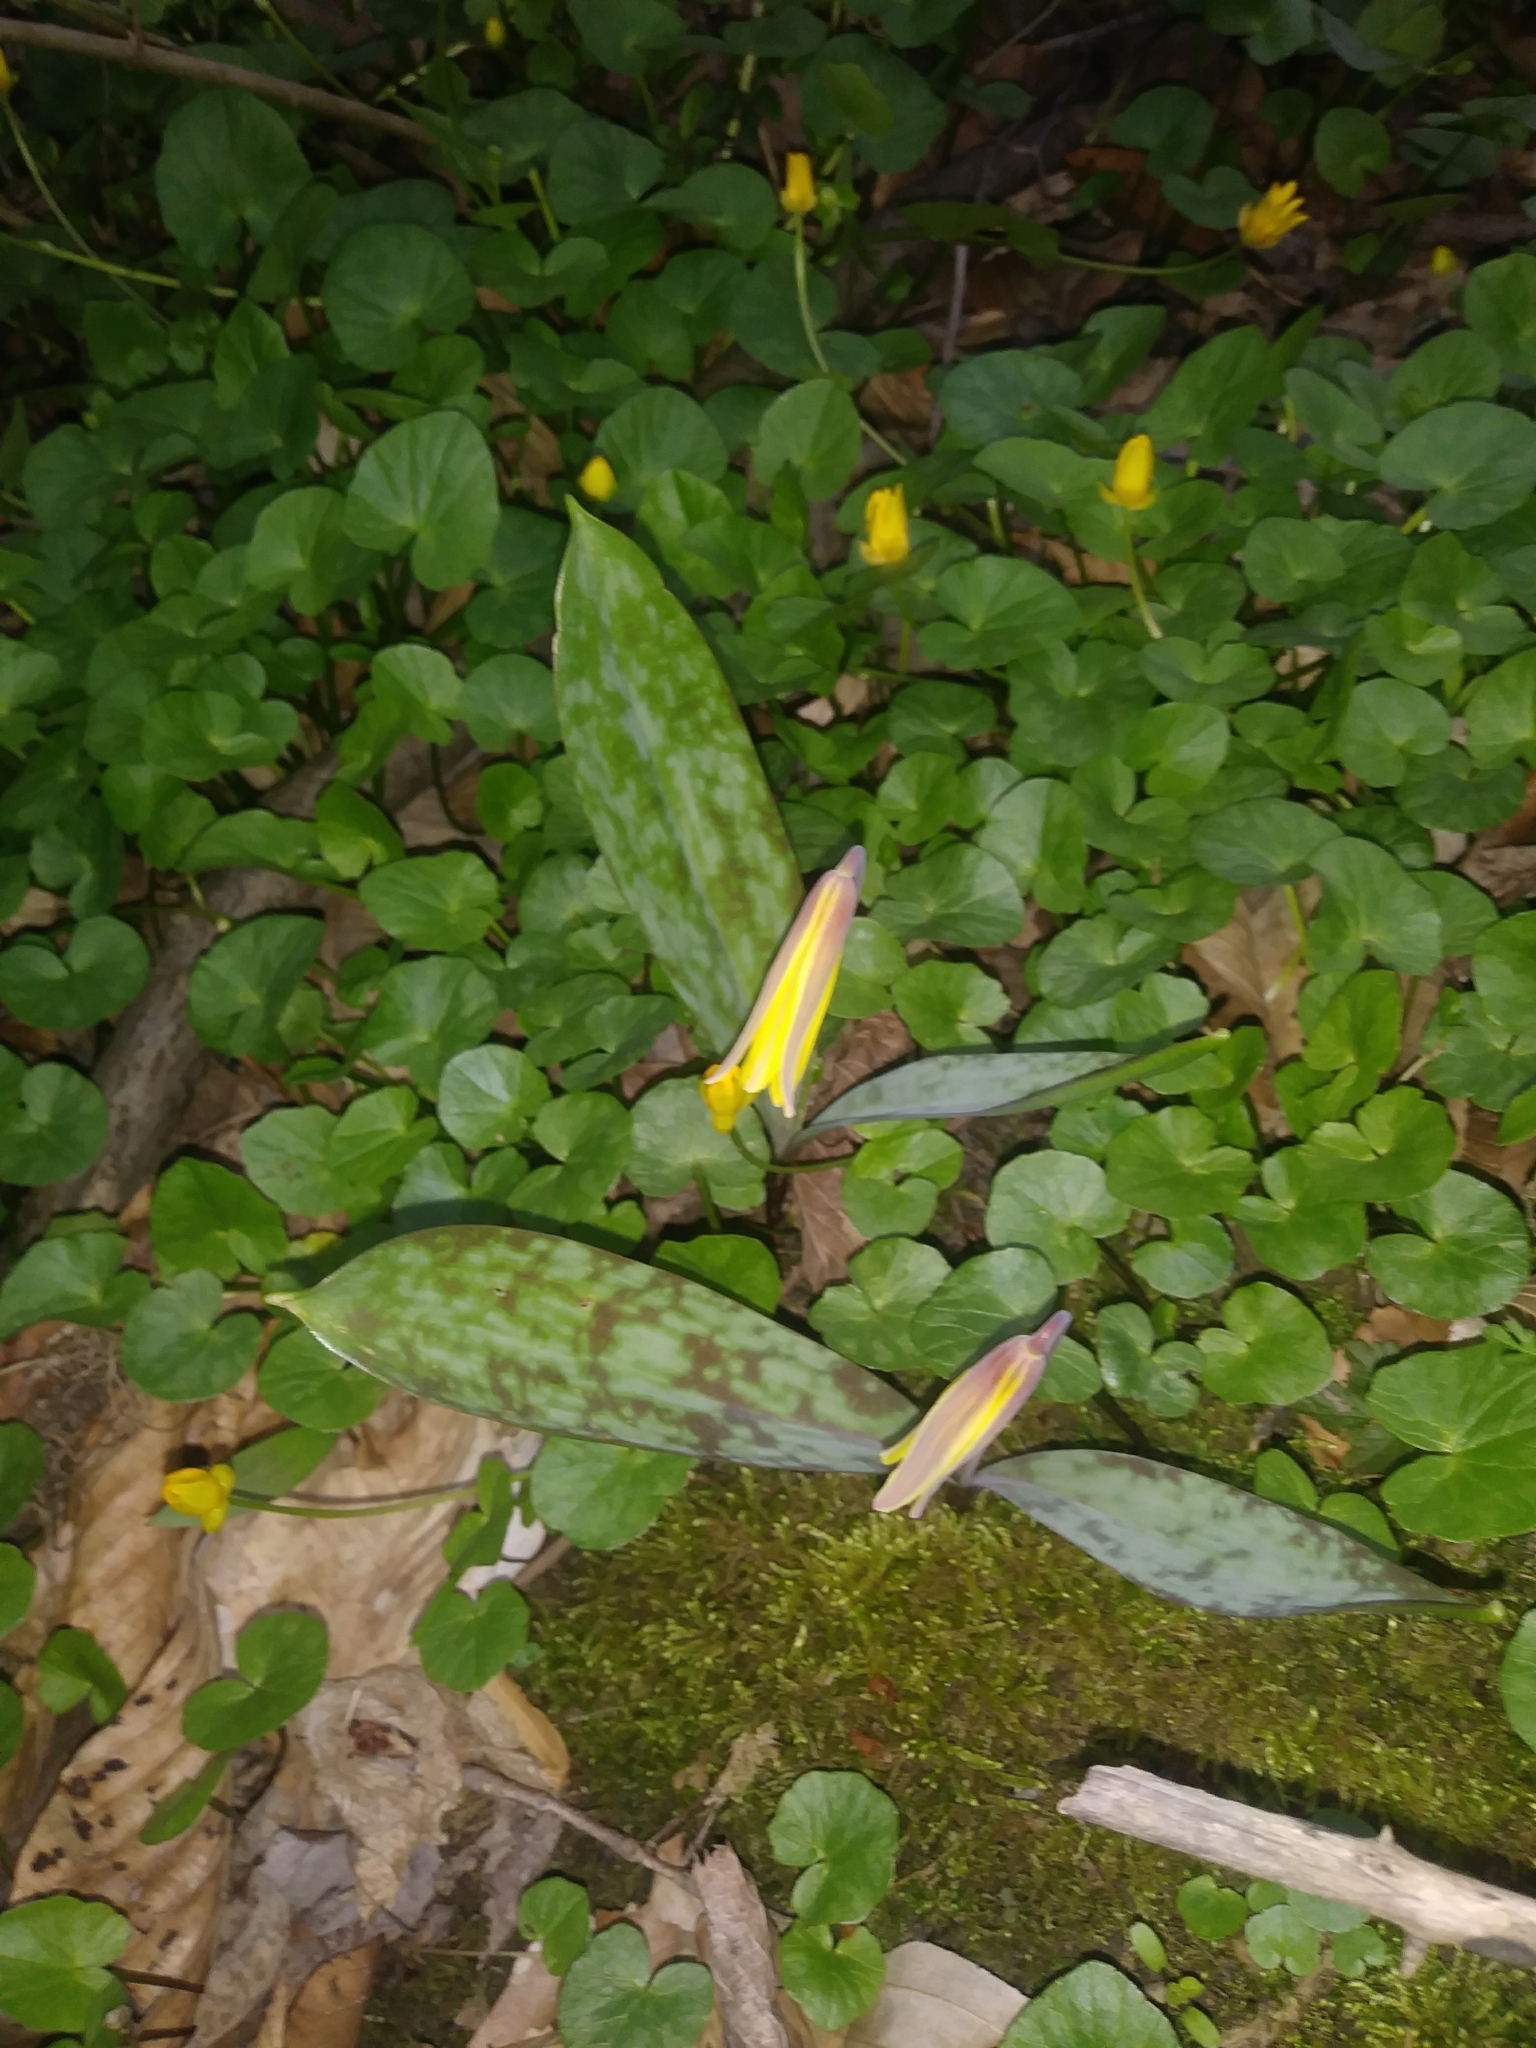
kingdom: Plantae
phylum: Tracheophyta
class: Liliopsida
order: Liliales
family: Liliaceae
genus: Erythronium
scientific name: Erythronium americanum
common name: Yellow adder's-tongue
